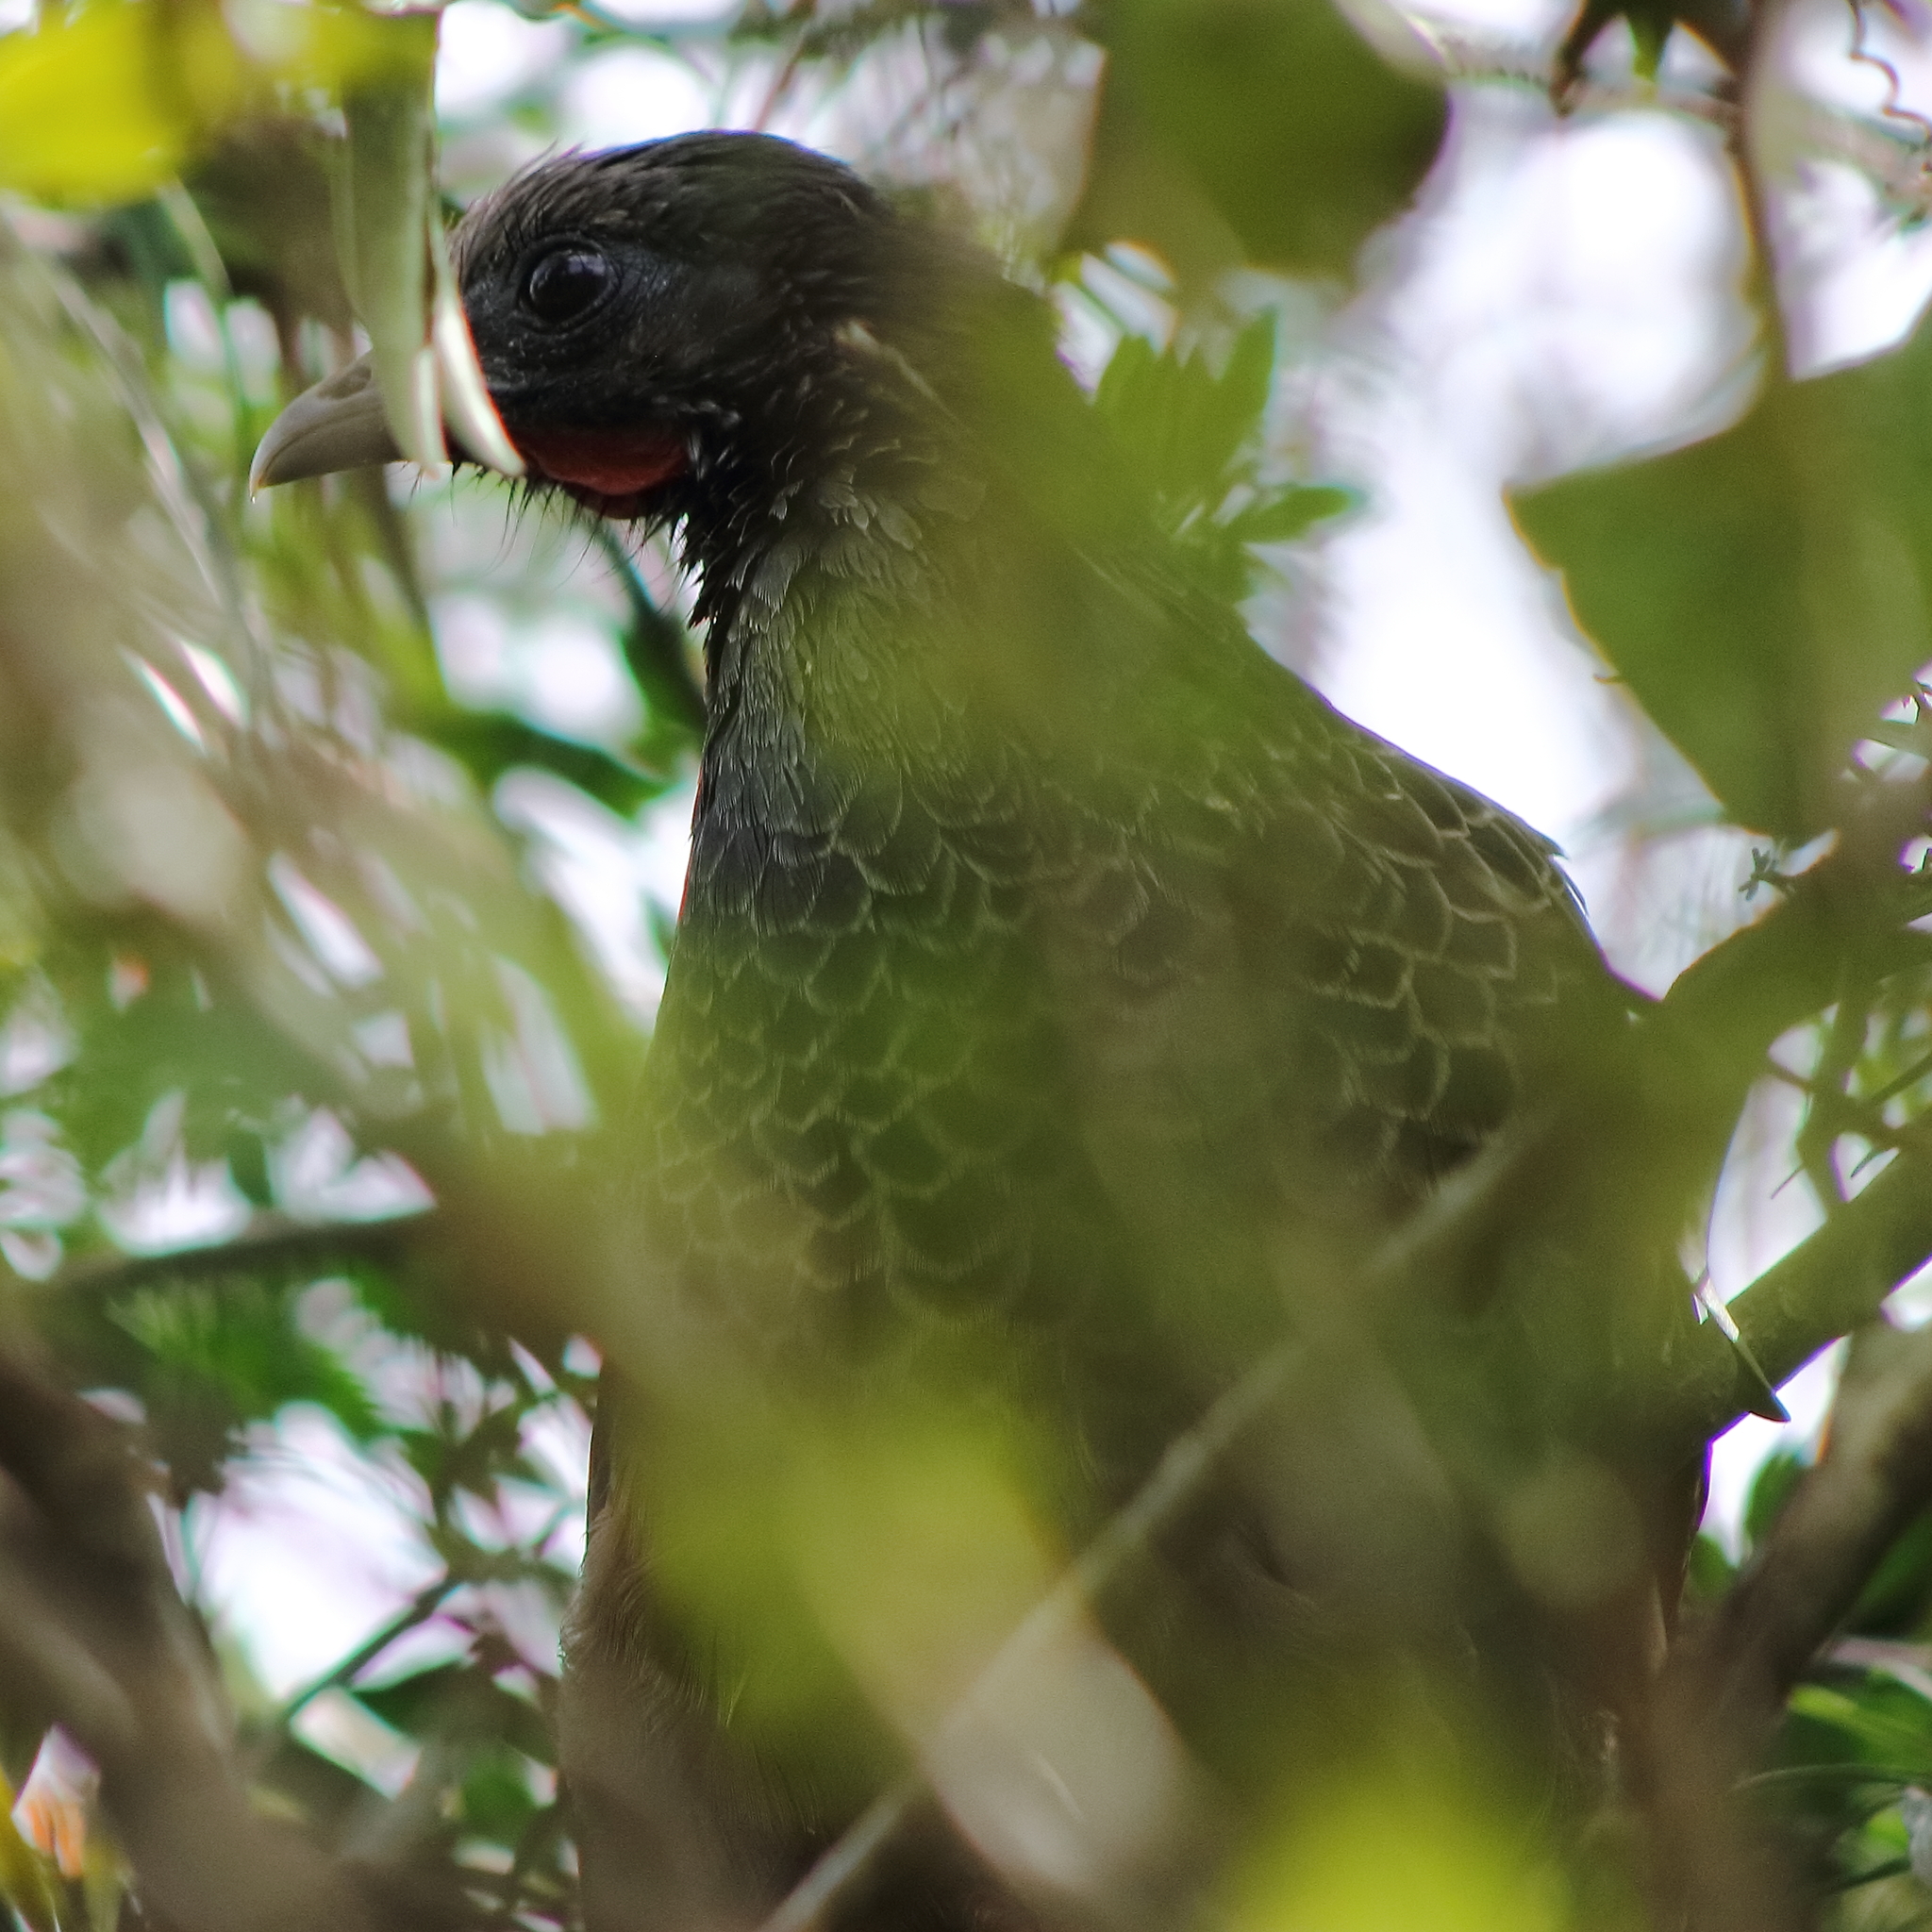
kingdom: Animalia
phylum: Chordata
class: Aves
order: Galliformes
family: Cracidae
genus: Ortalis
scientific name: Ortalis columbiana
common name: Colombian chachalaca
